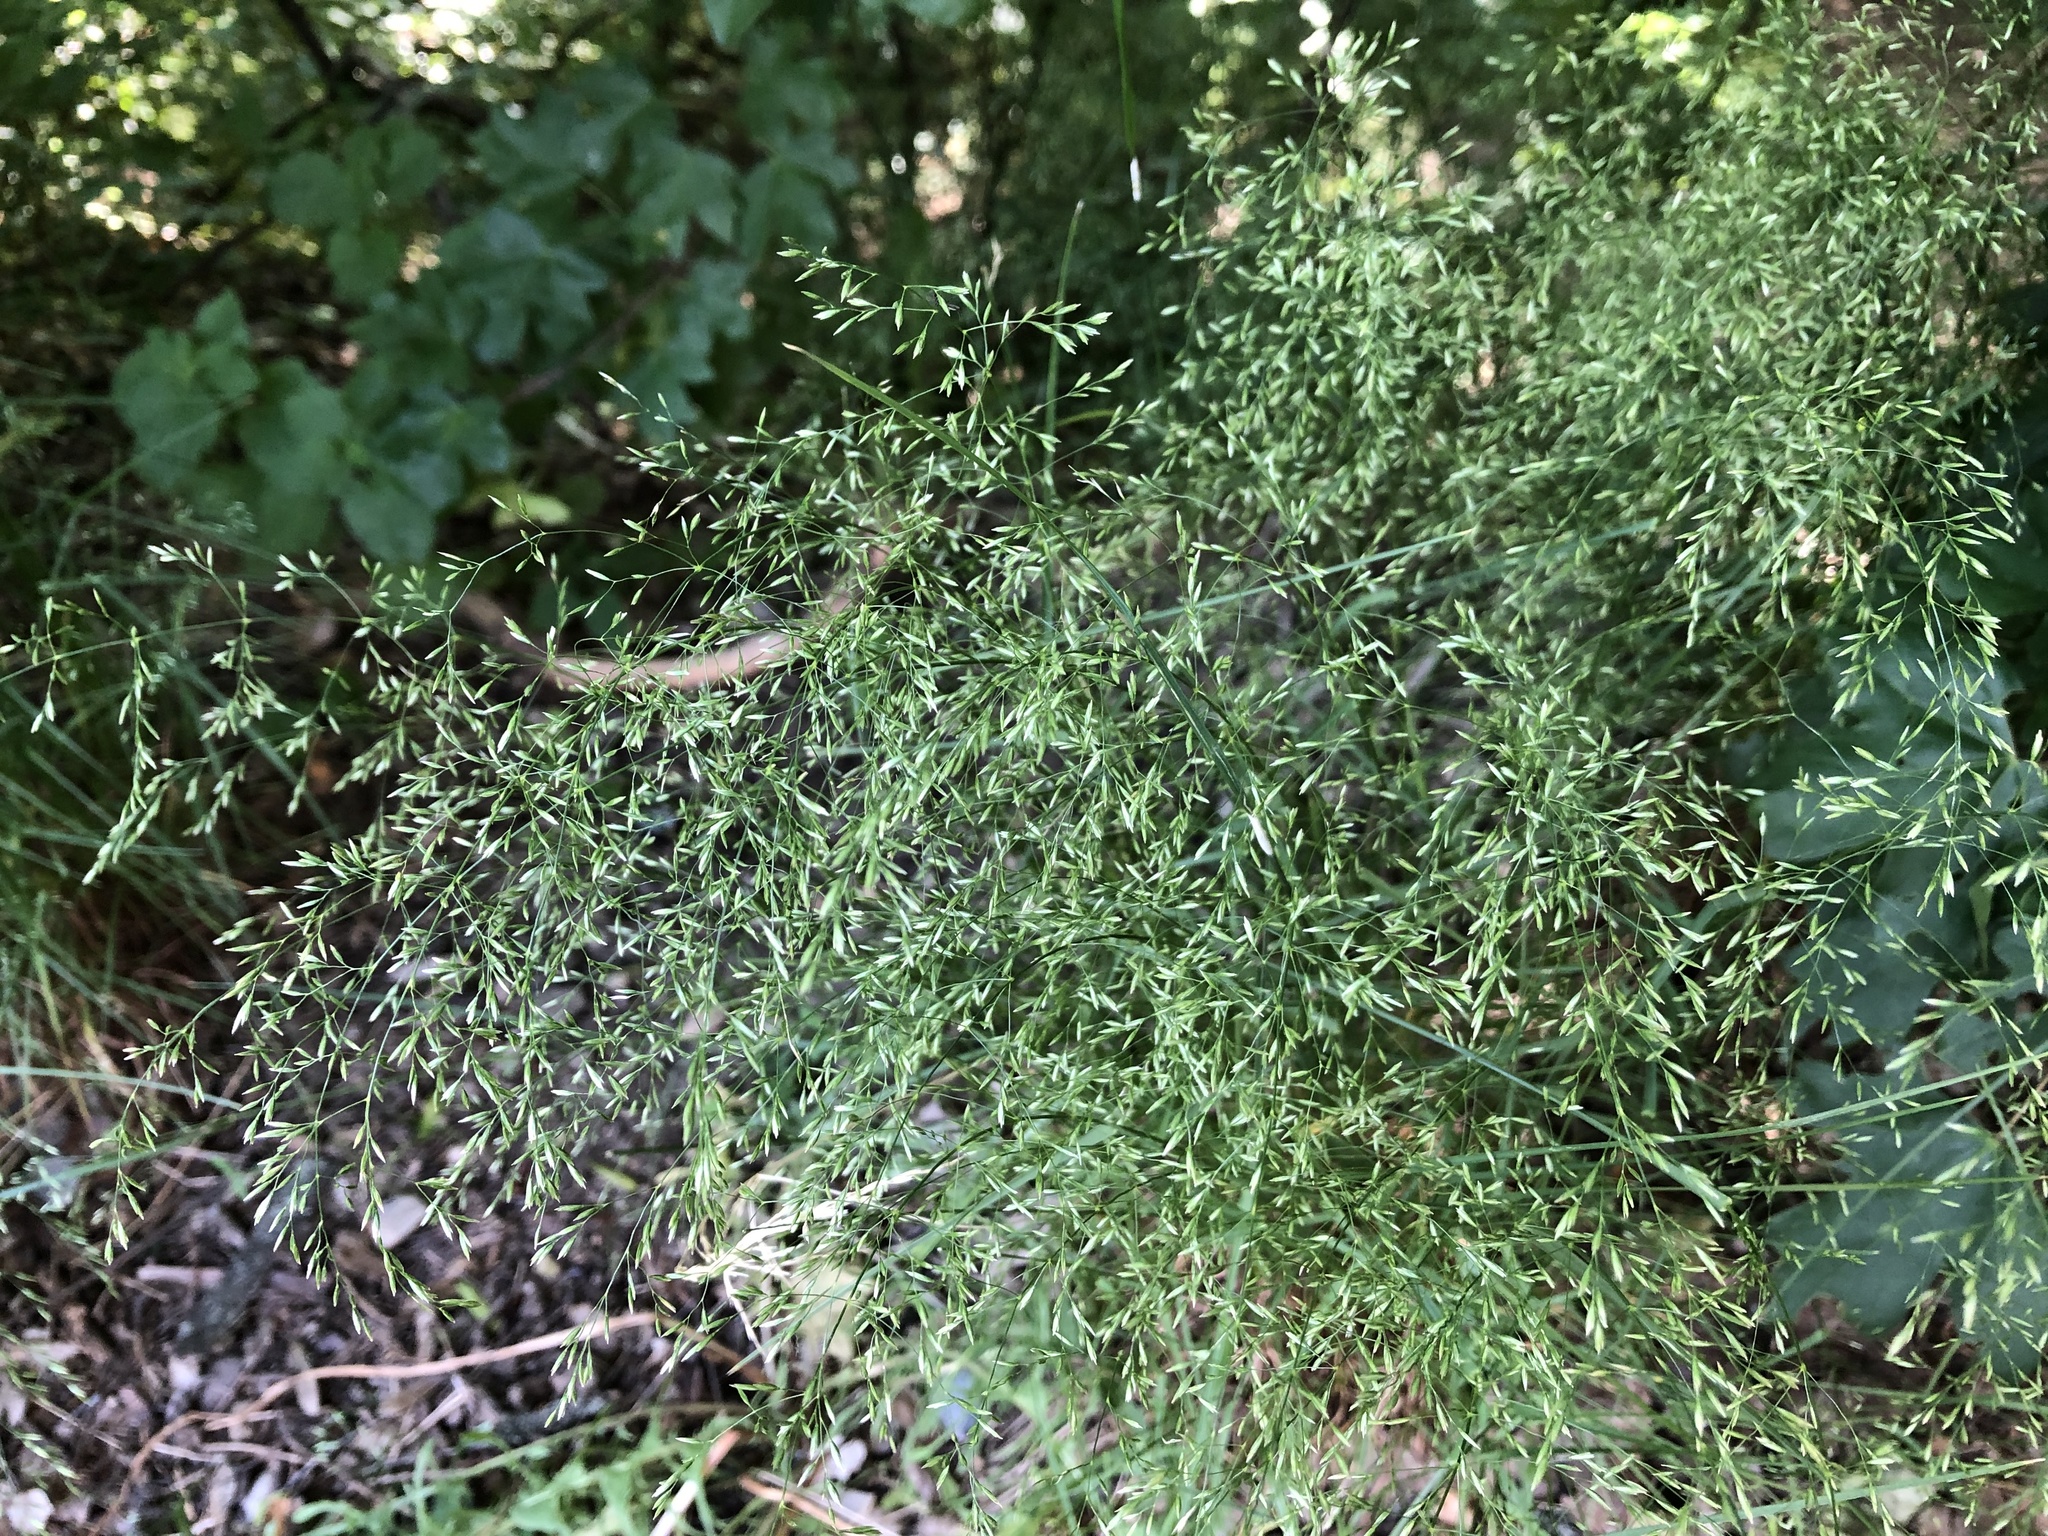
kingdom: Plantae
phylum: Tracheophyta
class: Liliopsida
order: Poales
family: Poaceae
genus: Poa
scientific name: Poa nemoralis
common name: Wood bluegrass
